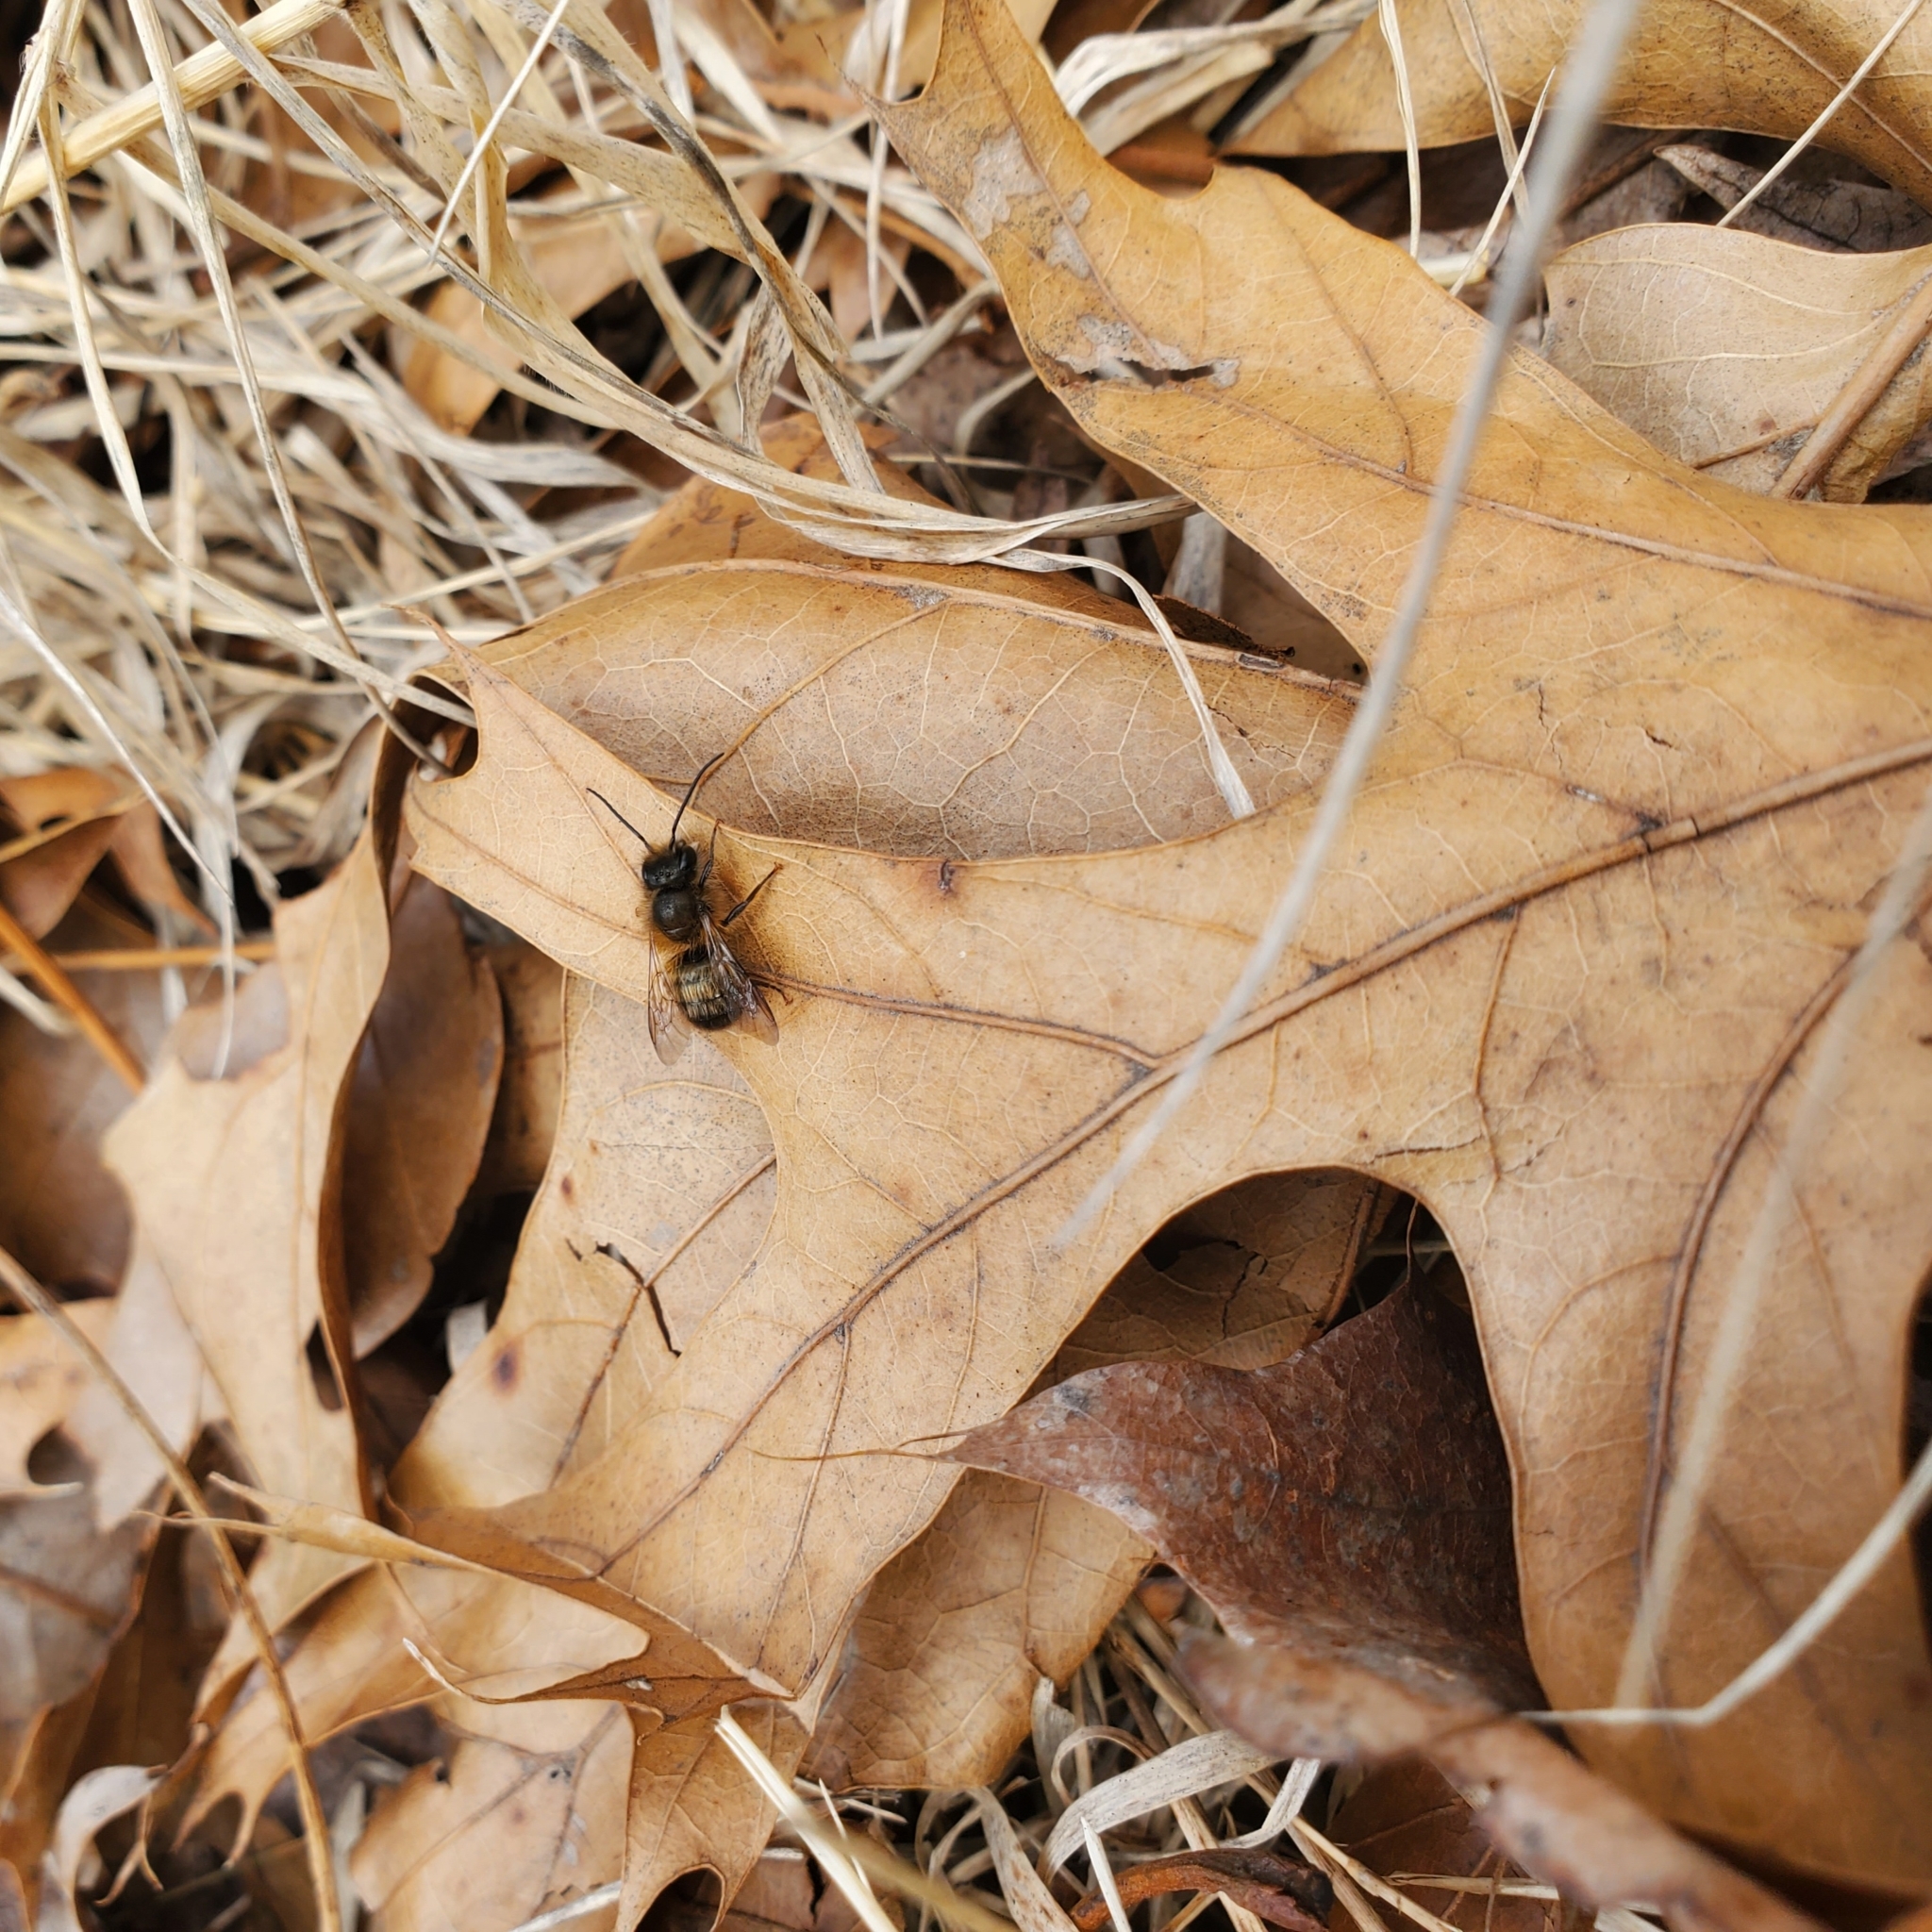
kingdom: Animalia
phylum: Arthropoda
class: Insecta
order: Hymenoptera
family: Megachilidae
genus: Osmia
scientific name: Osmia taurus
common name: Taurus mason bee
